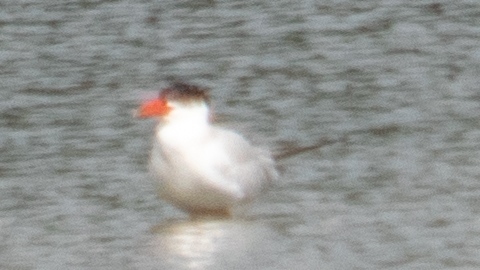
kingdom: Animalia
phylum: Chordata
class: Aves
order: Charadriiformes
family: Laridae
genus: Hydroprogne
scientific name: Hydroprogne caspia
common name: Caspian tern
